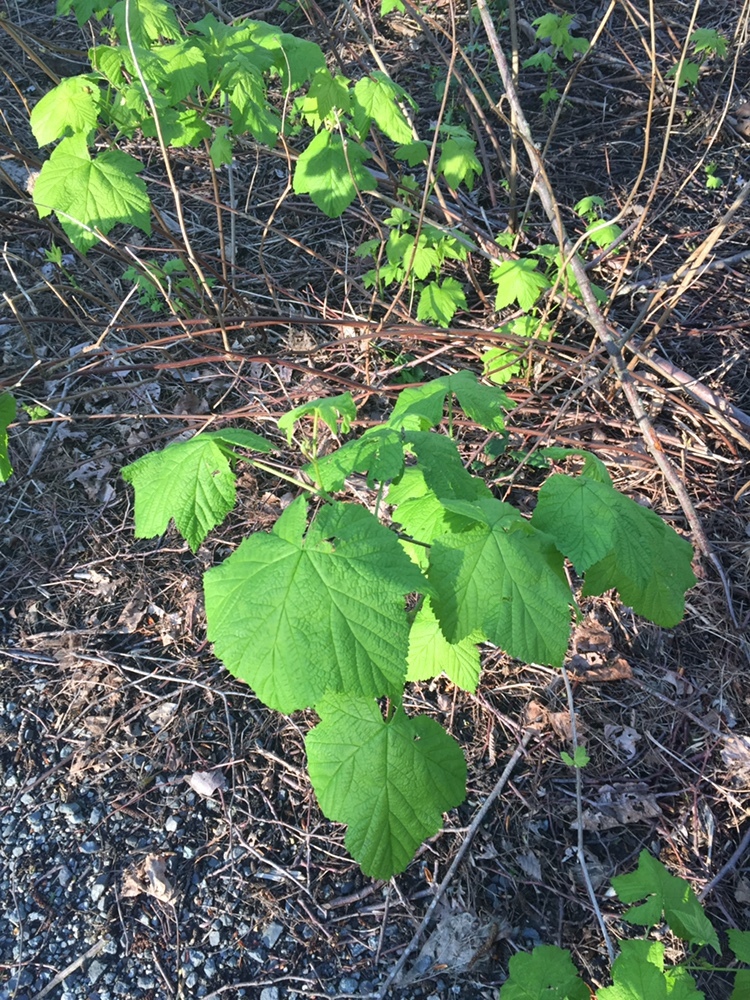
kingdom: Plantae
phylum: Tracheophyta
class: Magnoliopsida
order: Rosales
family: Rosaceae
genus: Rubus
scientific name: Rubus parviflorus
